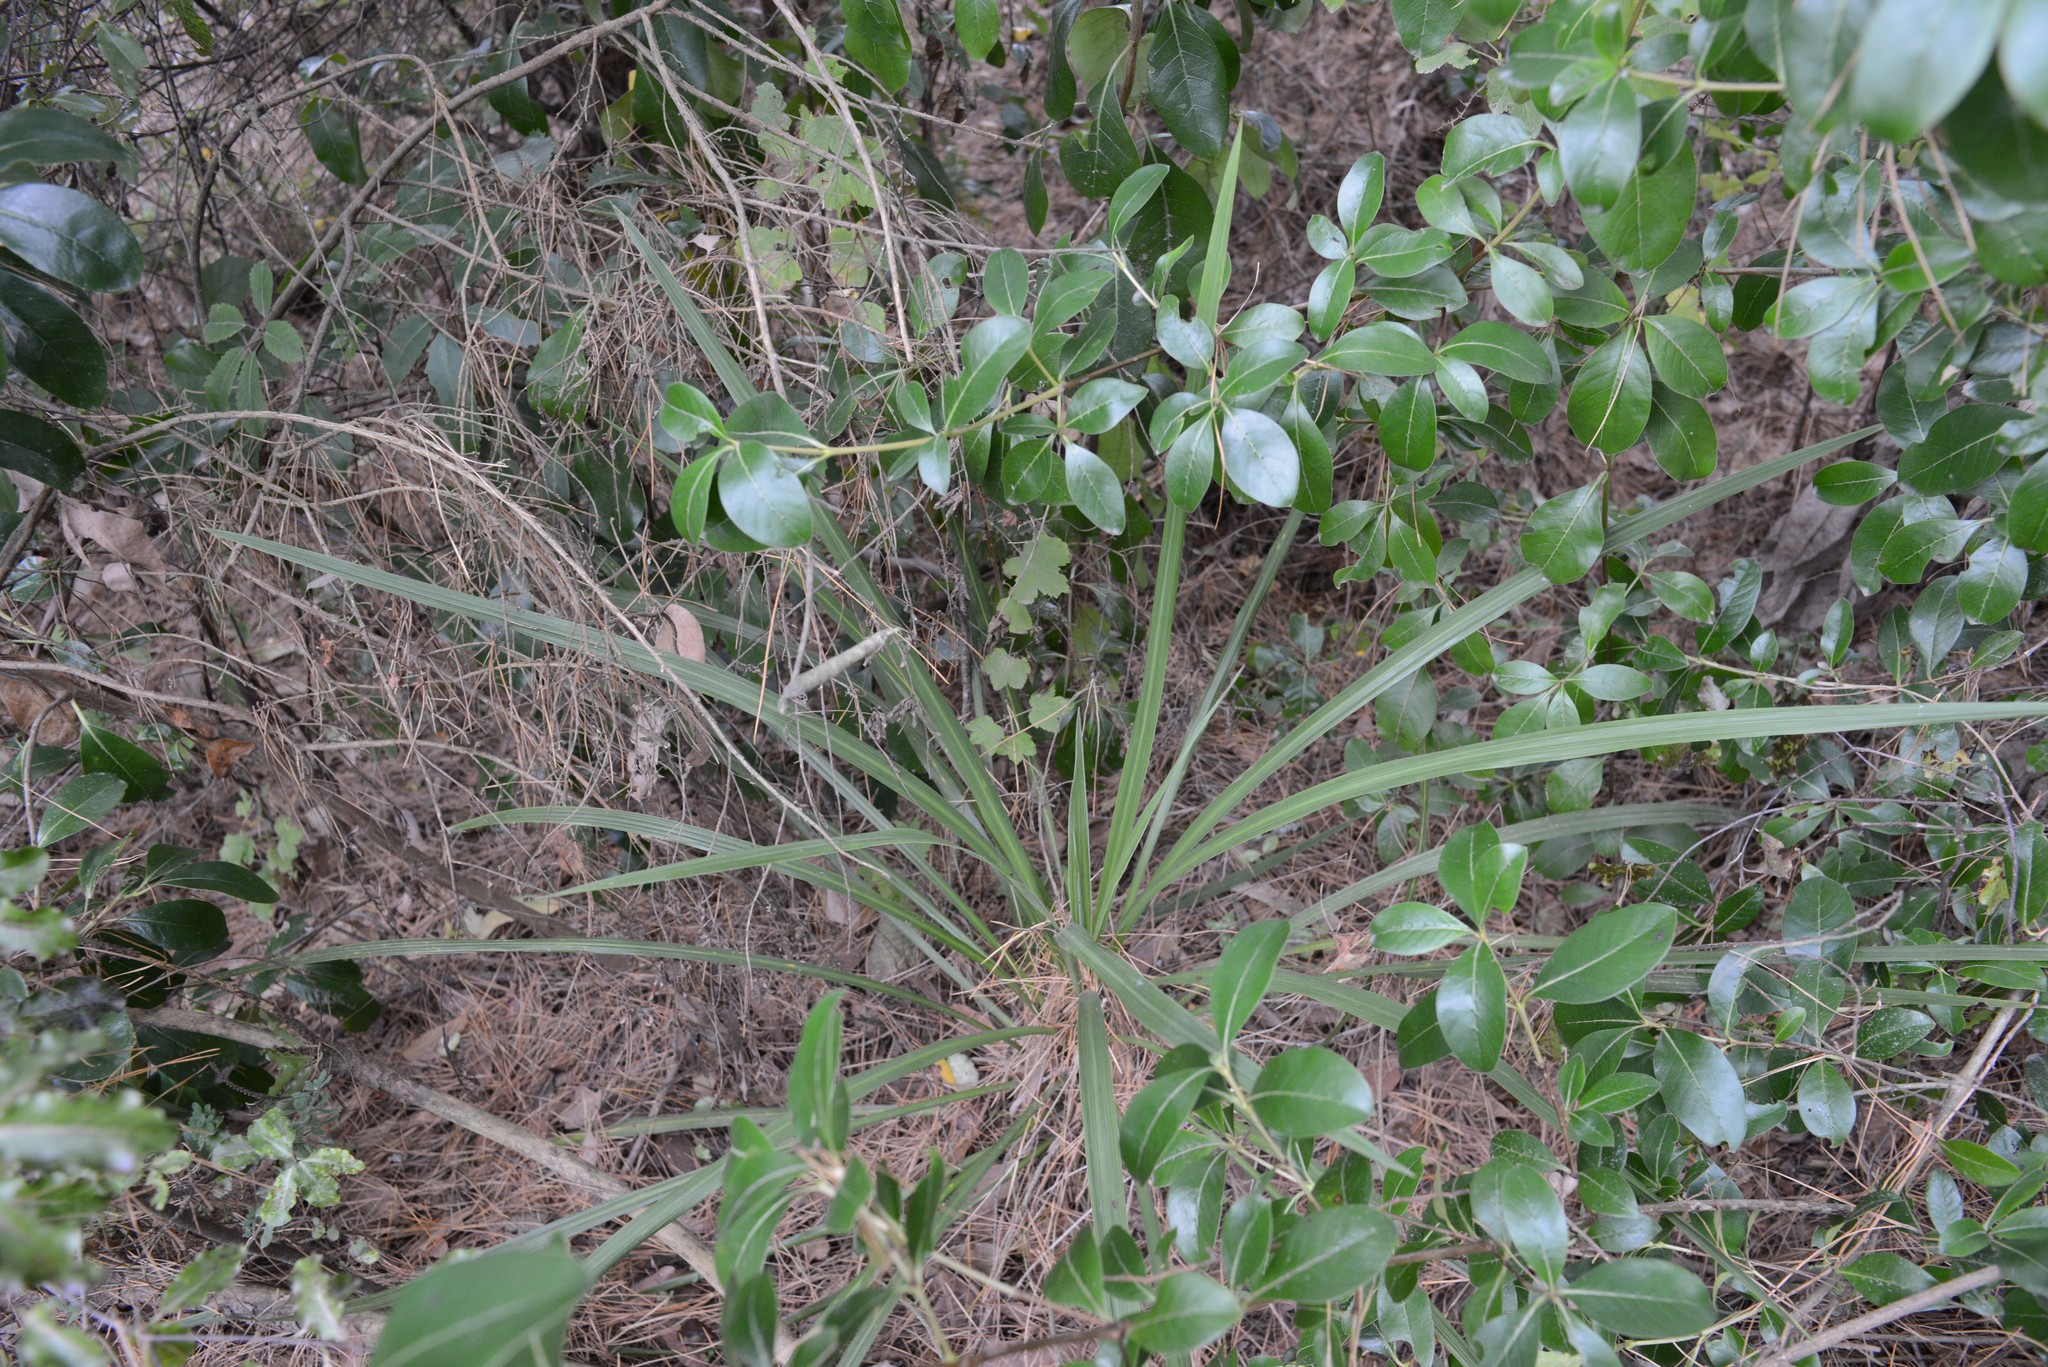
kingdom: Plantae
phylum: Tracheophyta
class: Liliopsida
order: Asparagales
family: Asparagaceae
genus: Cordyline
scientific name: Cordyline australis
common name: Cabbage-palm
